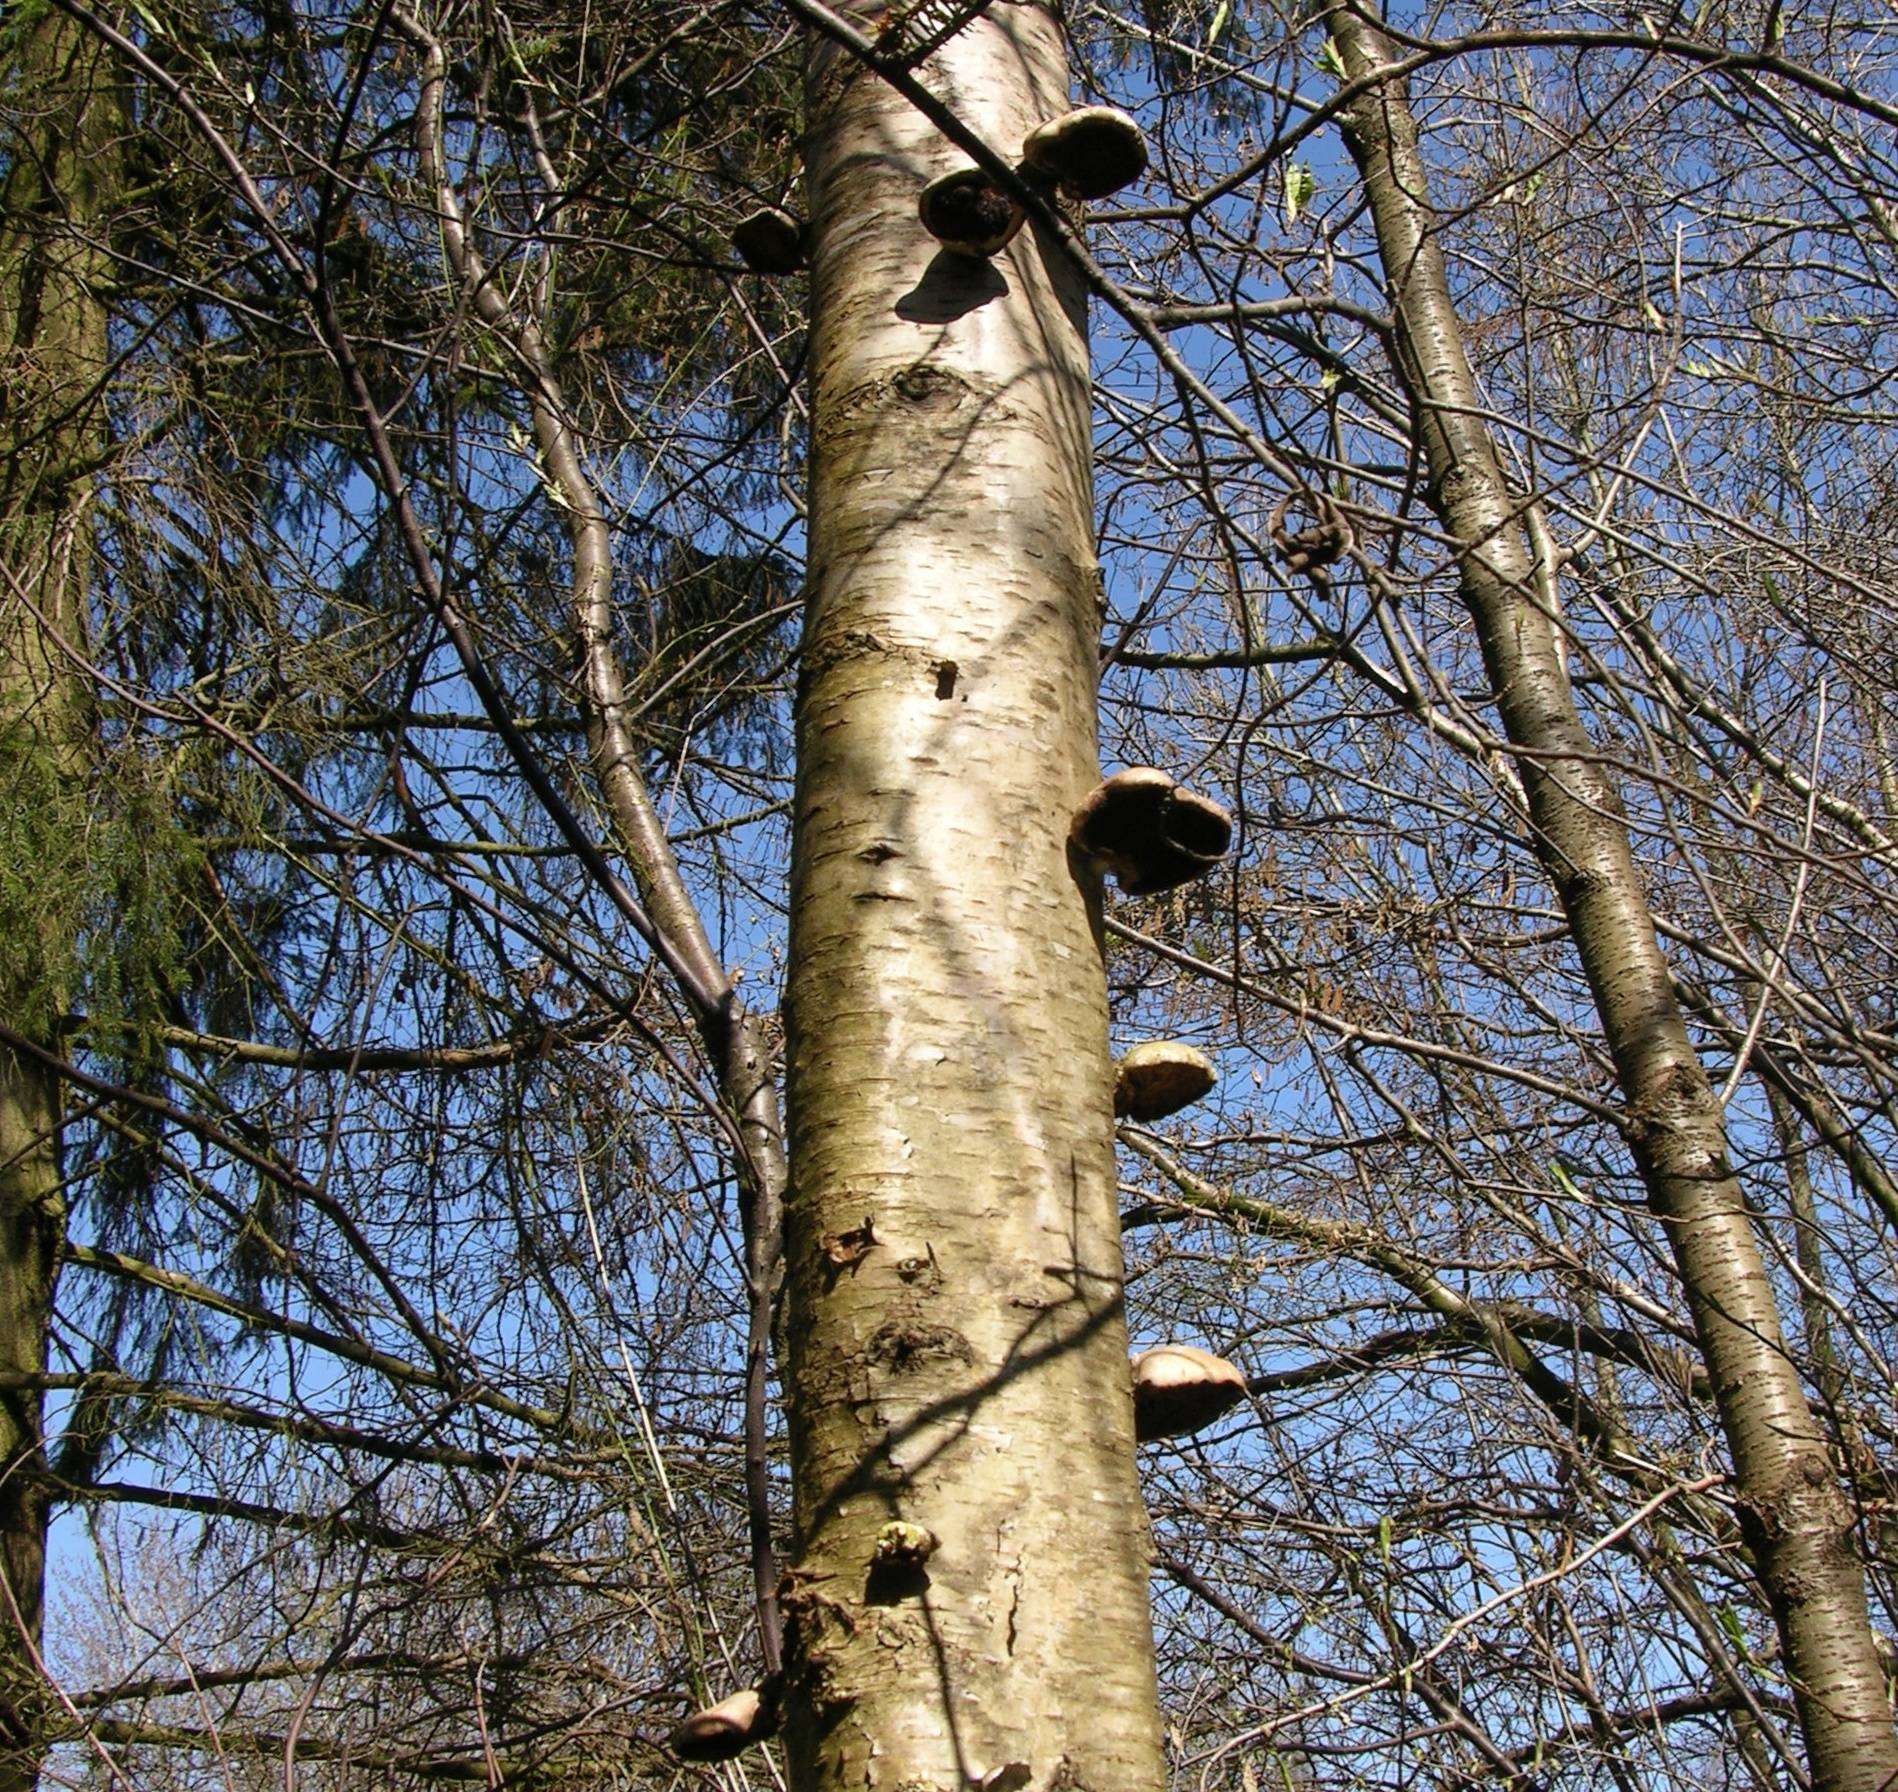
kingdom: Fungi
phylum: Basidiomycota
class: Agaricomycetes
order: Polyporales
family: Fomitopsidaceae
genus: Fomitopsis
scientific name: Fomitopsis betulina
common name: Birch polypore
